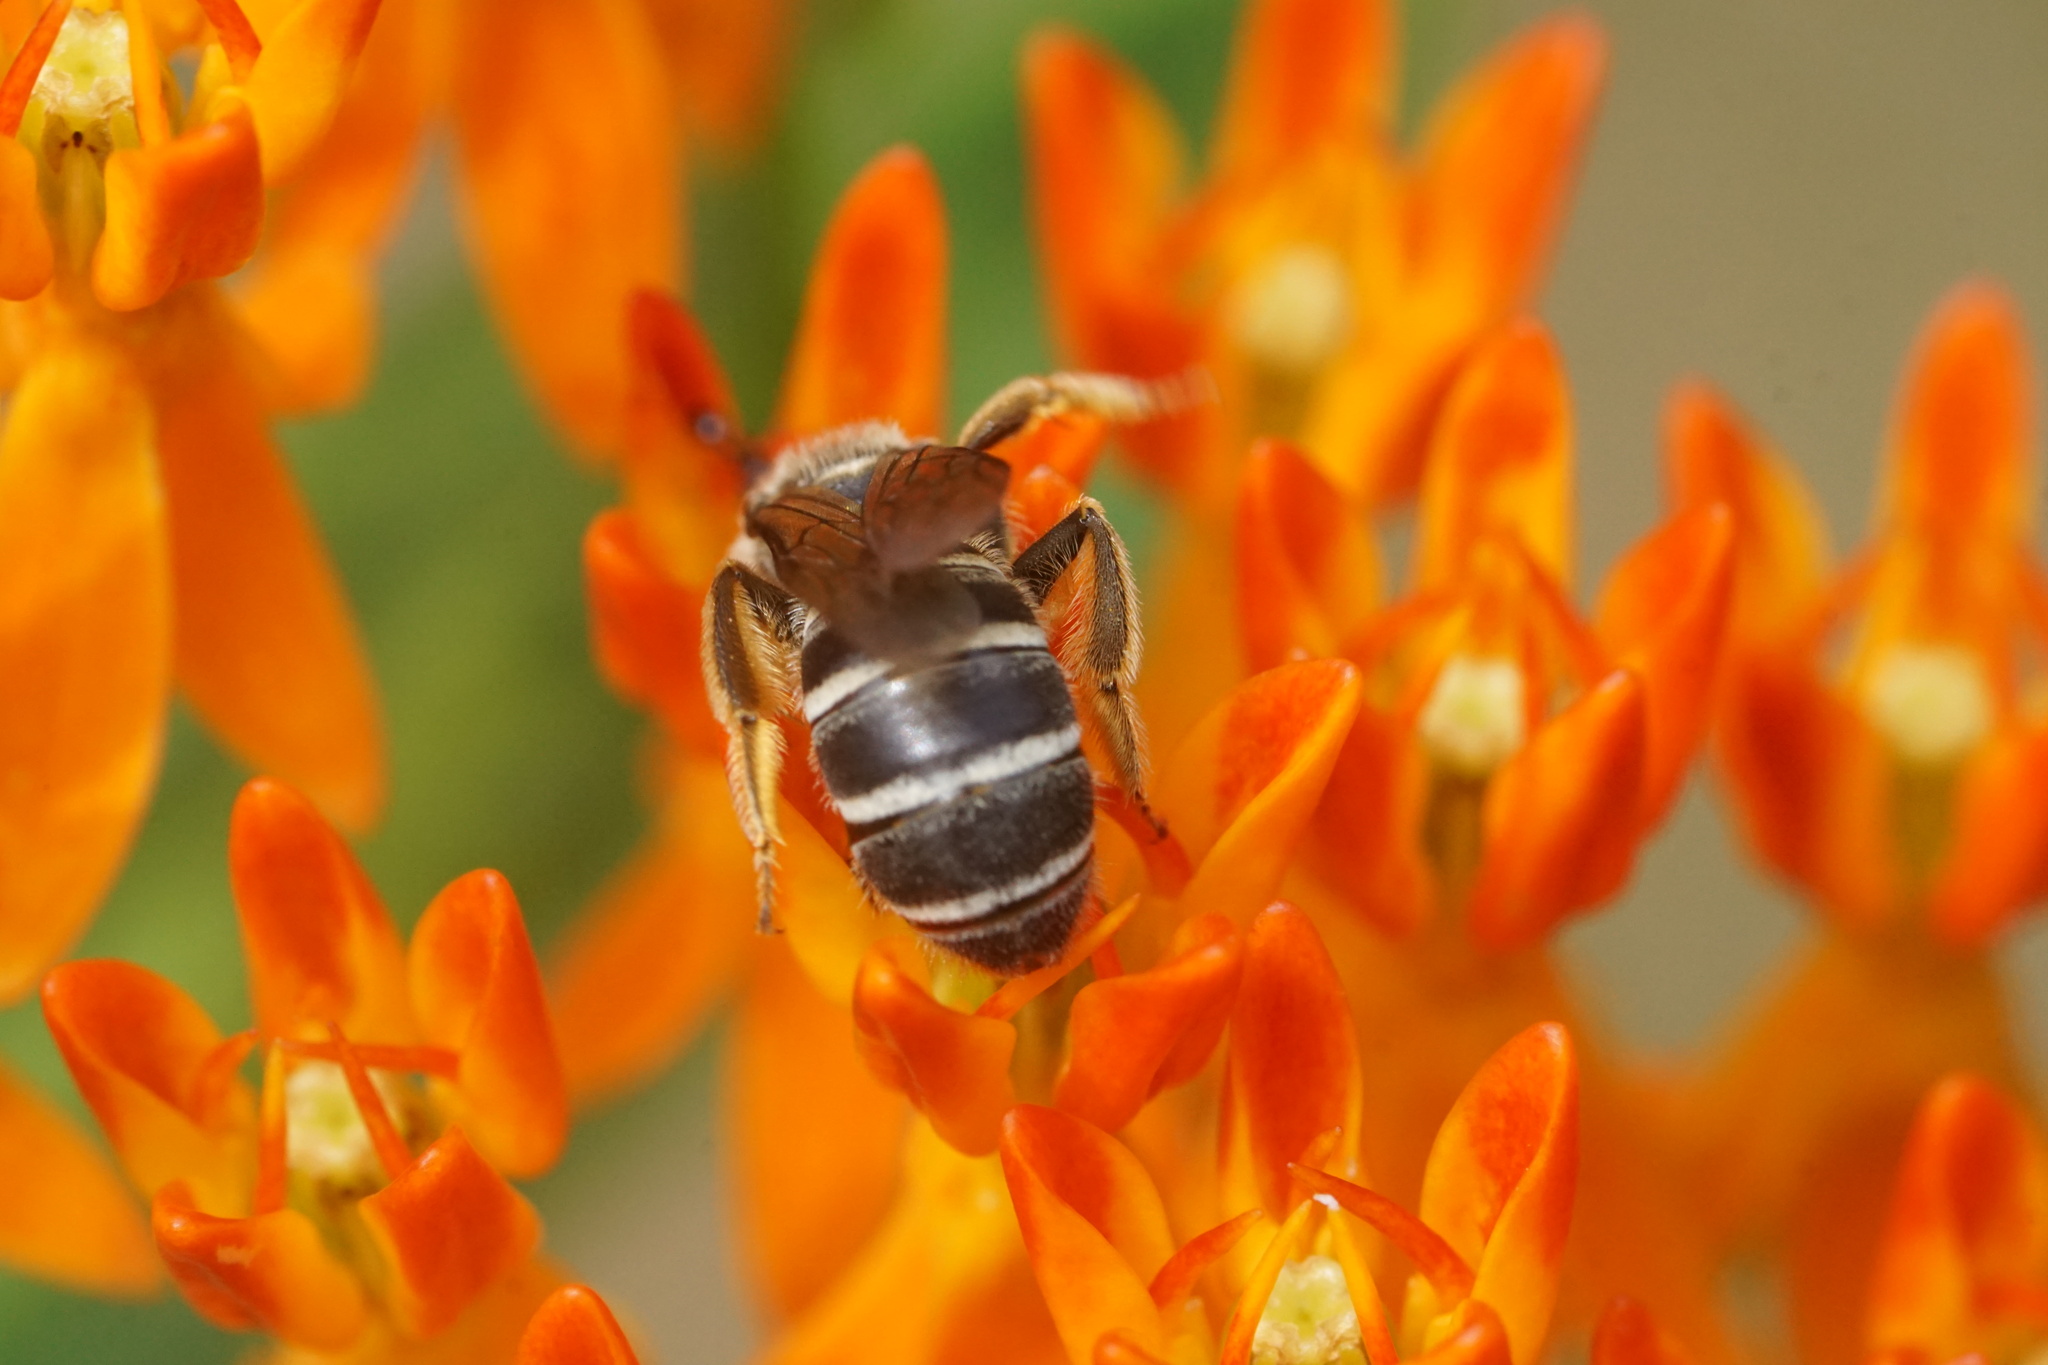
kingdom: Animalia
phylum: Arthropoda
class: Insecta
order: Hymenoptera
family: Halictidae
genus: Halictus
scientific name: Halictus rubicundus
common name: Orange-legged furrow bee
